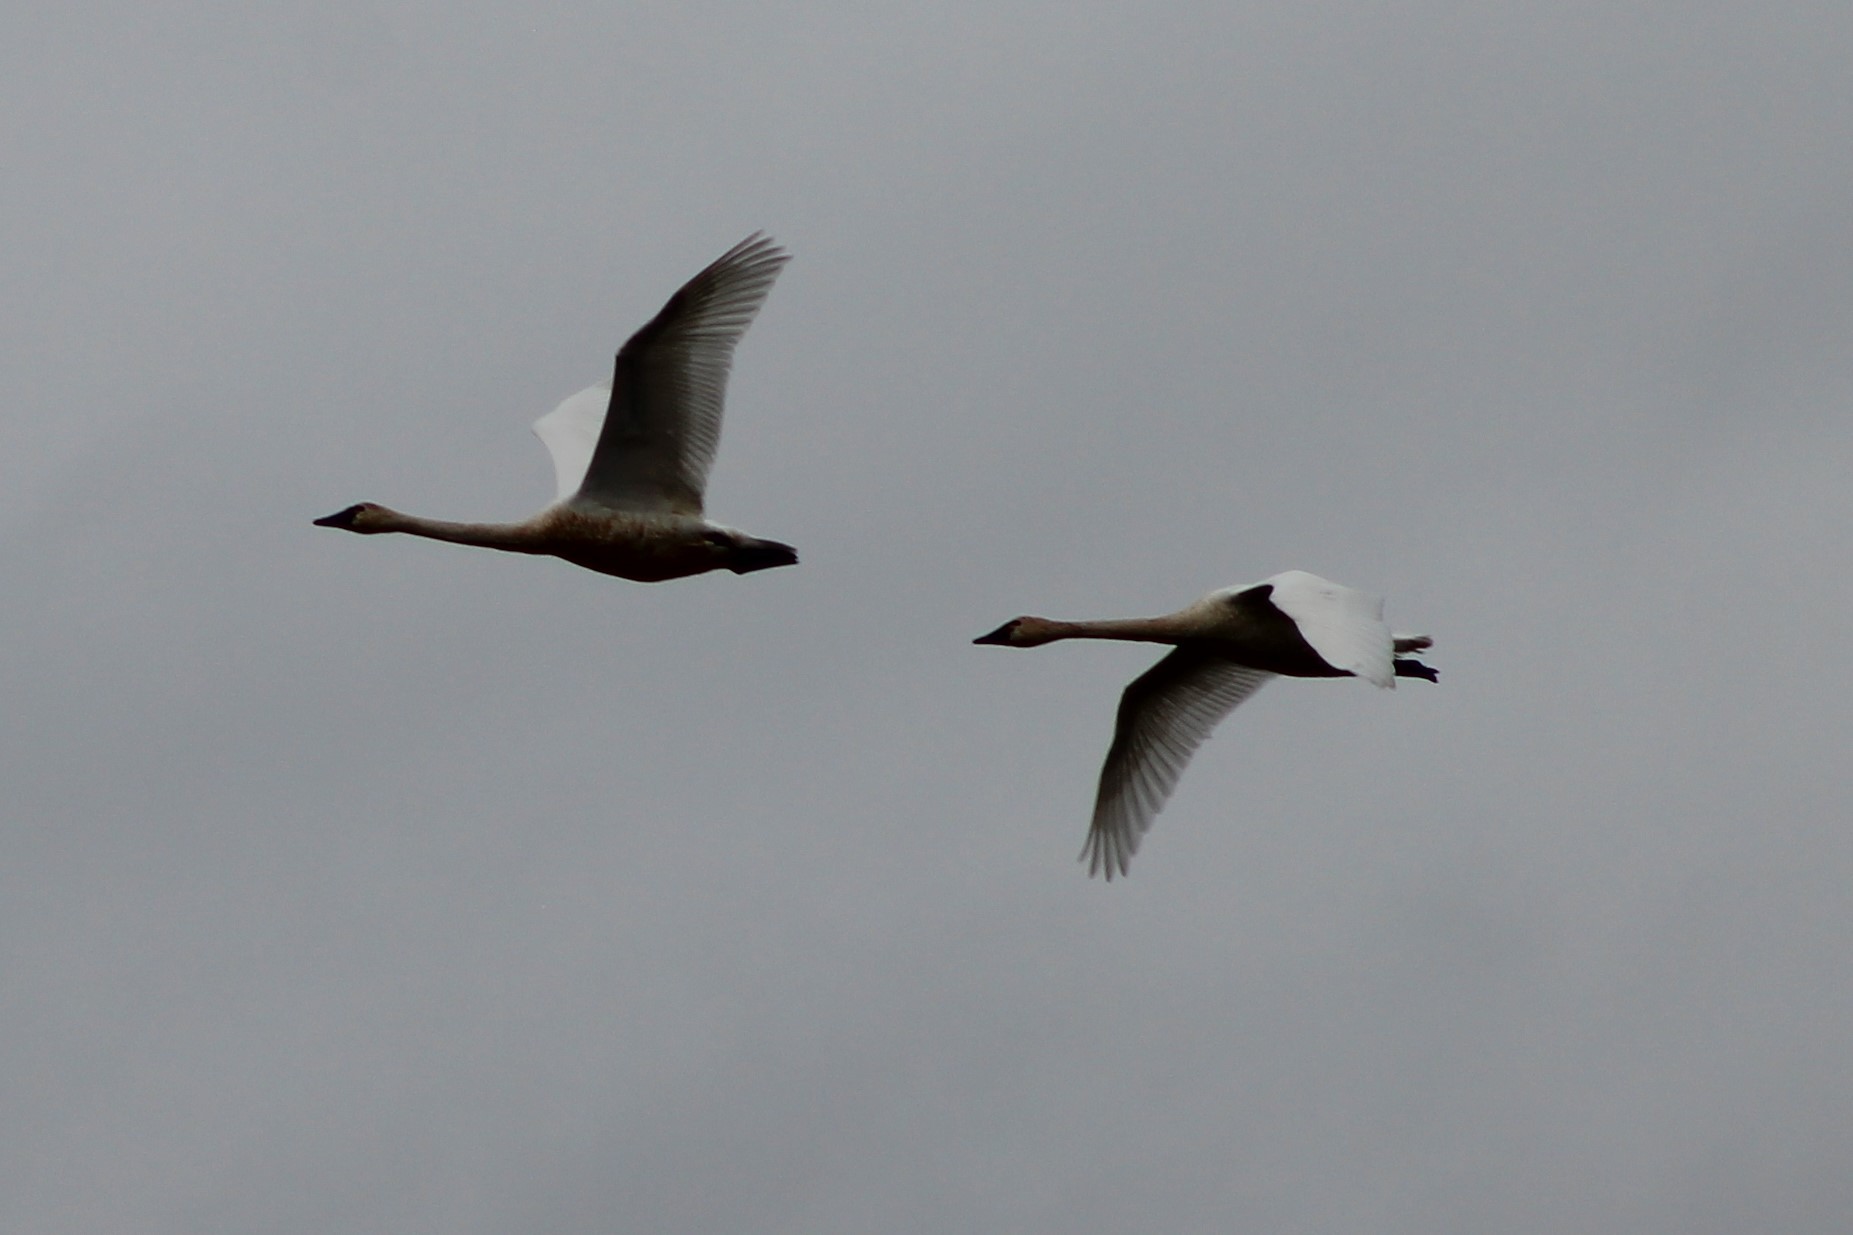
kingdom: Animalia
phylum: Chordata
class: Aves
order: Anseriformes
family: Anatidae
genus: Cygnus
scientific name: Cygnus buccinator
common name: Trumpeter swan
